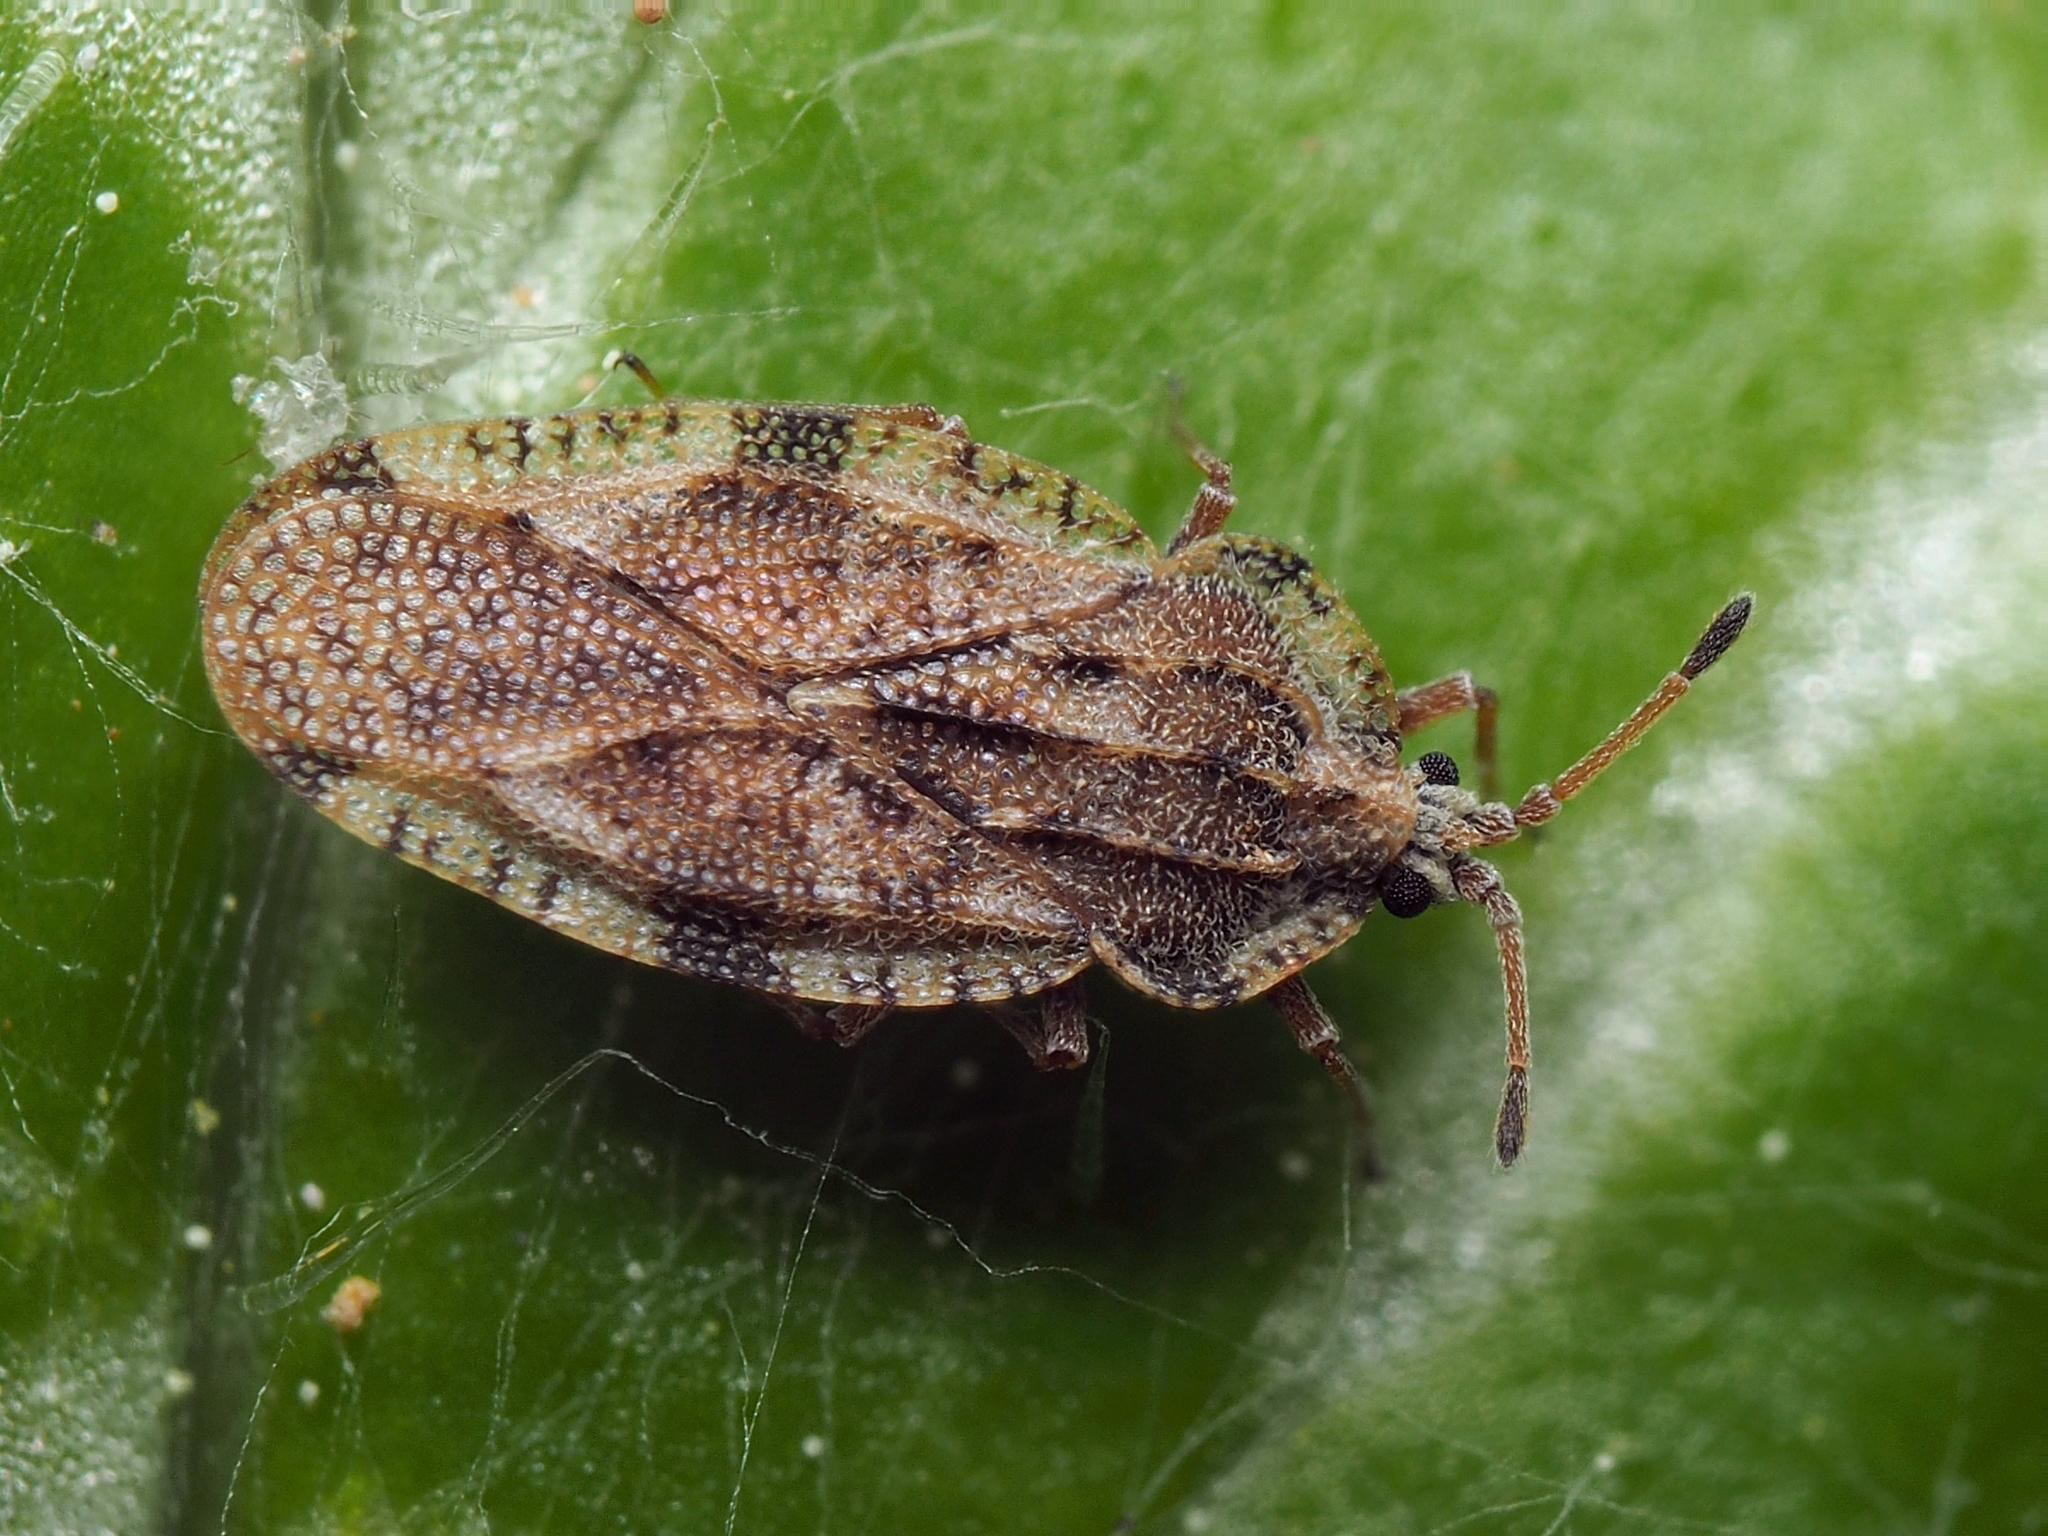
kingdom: Animalia
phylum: Arthropoda
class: Insecta
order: Hemiptera
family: Tingidae
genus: Tingis
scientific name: Tingis cardui
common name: Spear thistle lacebug
